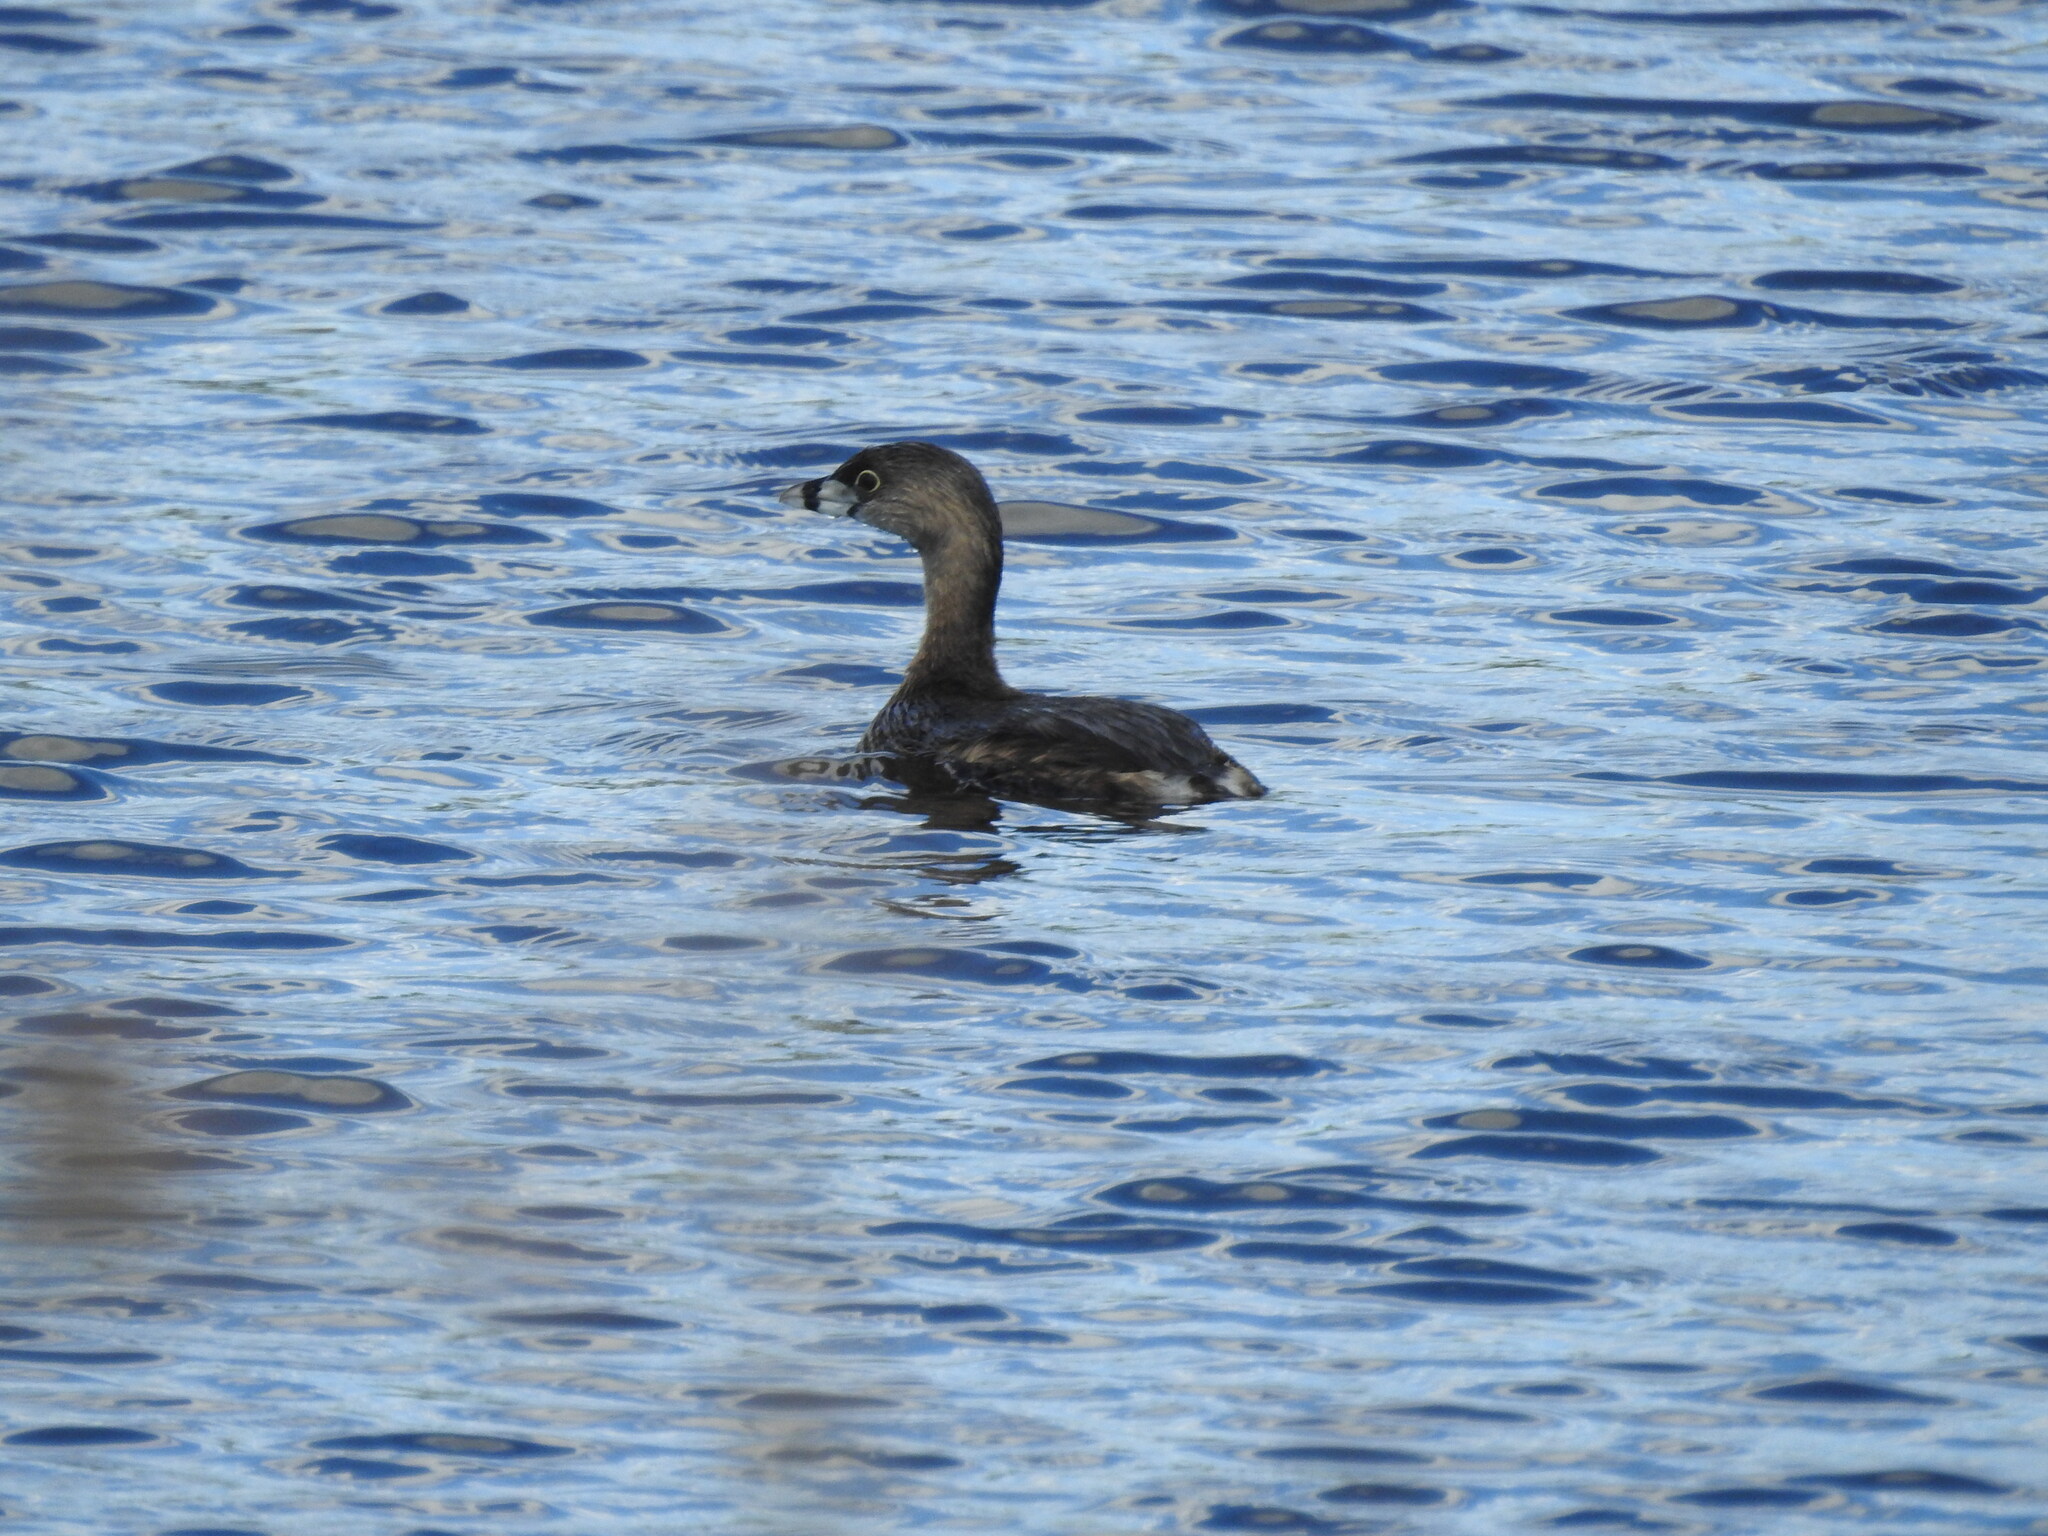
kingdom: Animalia
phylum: Chordata
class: Aves
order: Podicipediformes
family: Podicipedidae
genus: Podilymbus
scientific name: Podilymbus podiceps
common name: Pied-billed grebe
